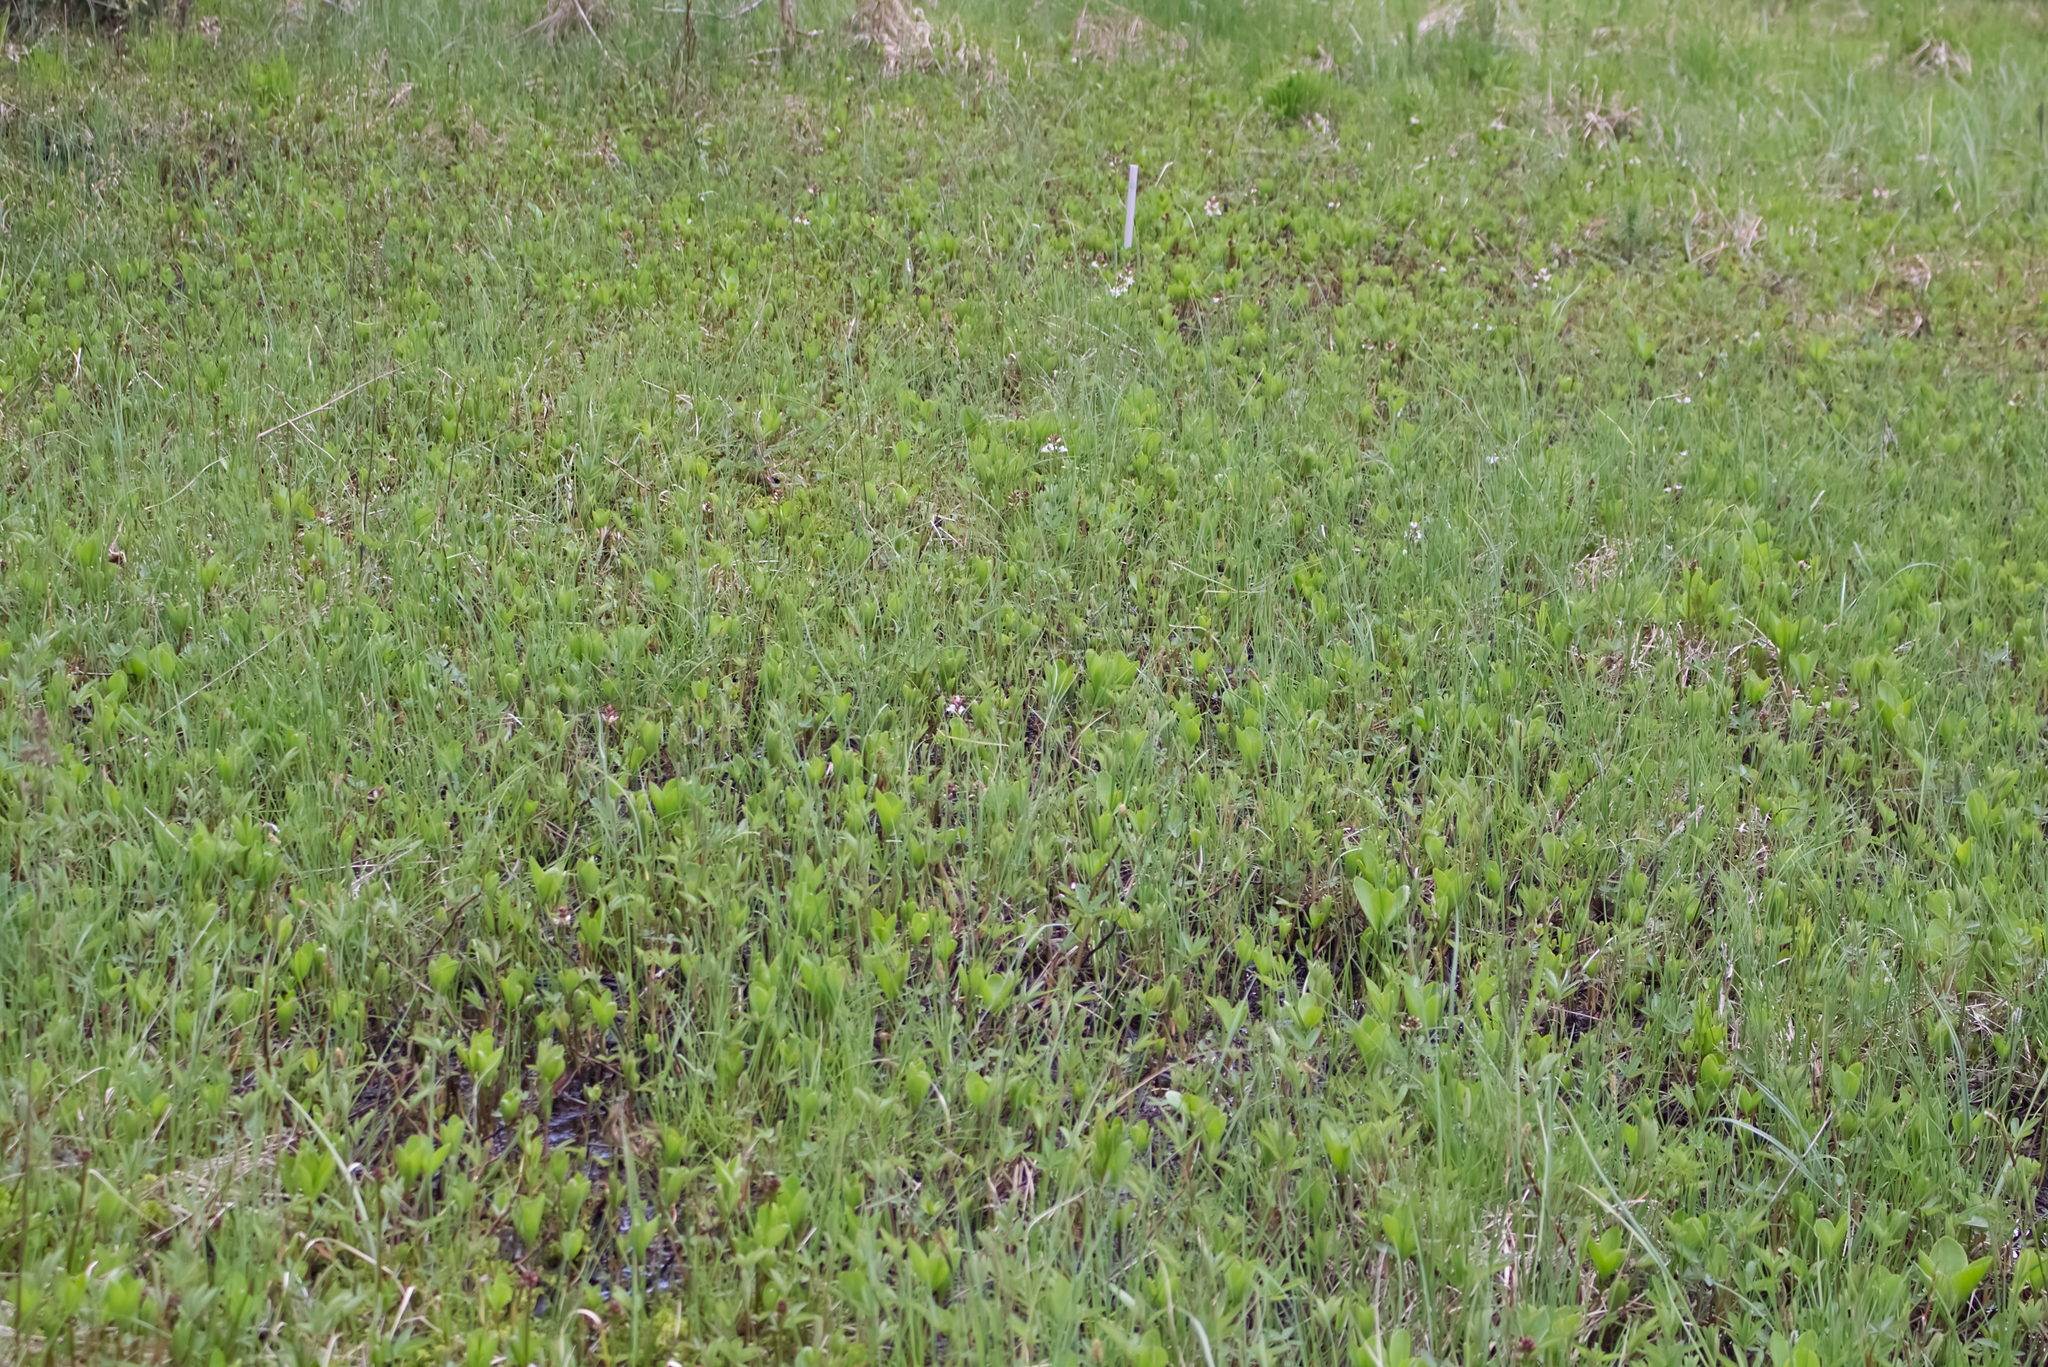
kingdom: Plantae
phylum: Tracheophyta
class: Magnoliopsida
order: Asterales
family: Menyanthaceae
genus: Menyanthes
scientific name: Menyanthes trifoliata
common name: Bogbean
